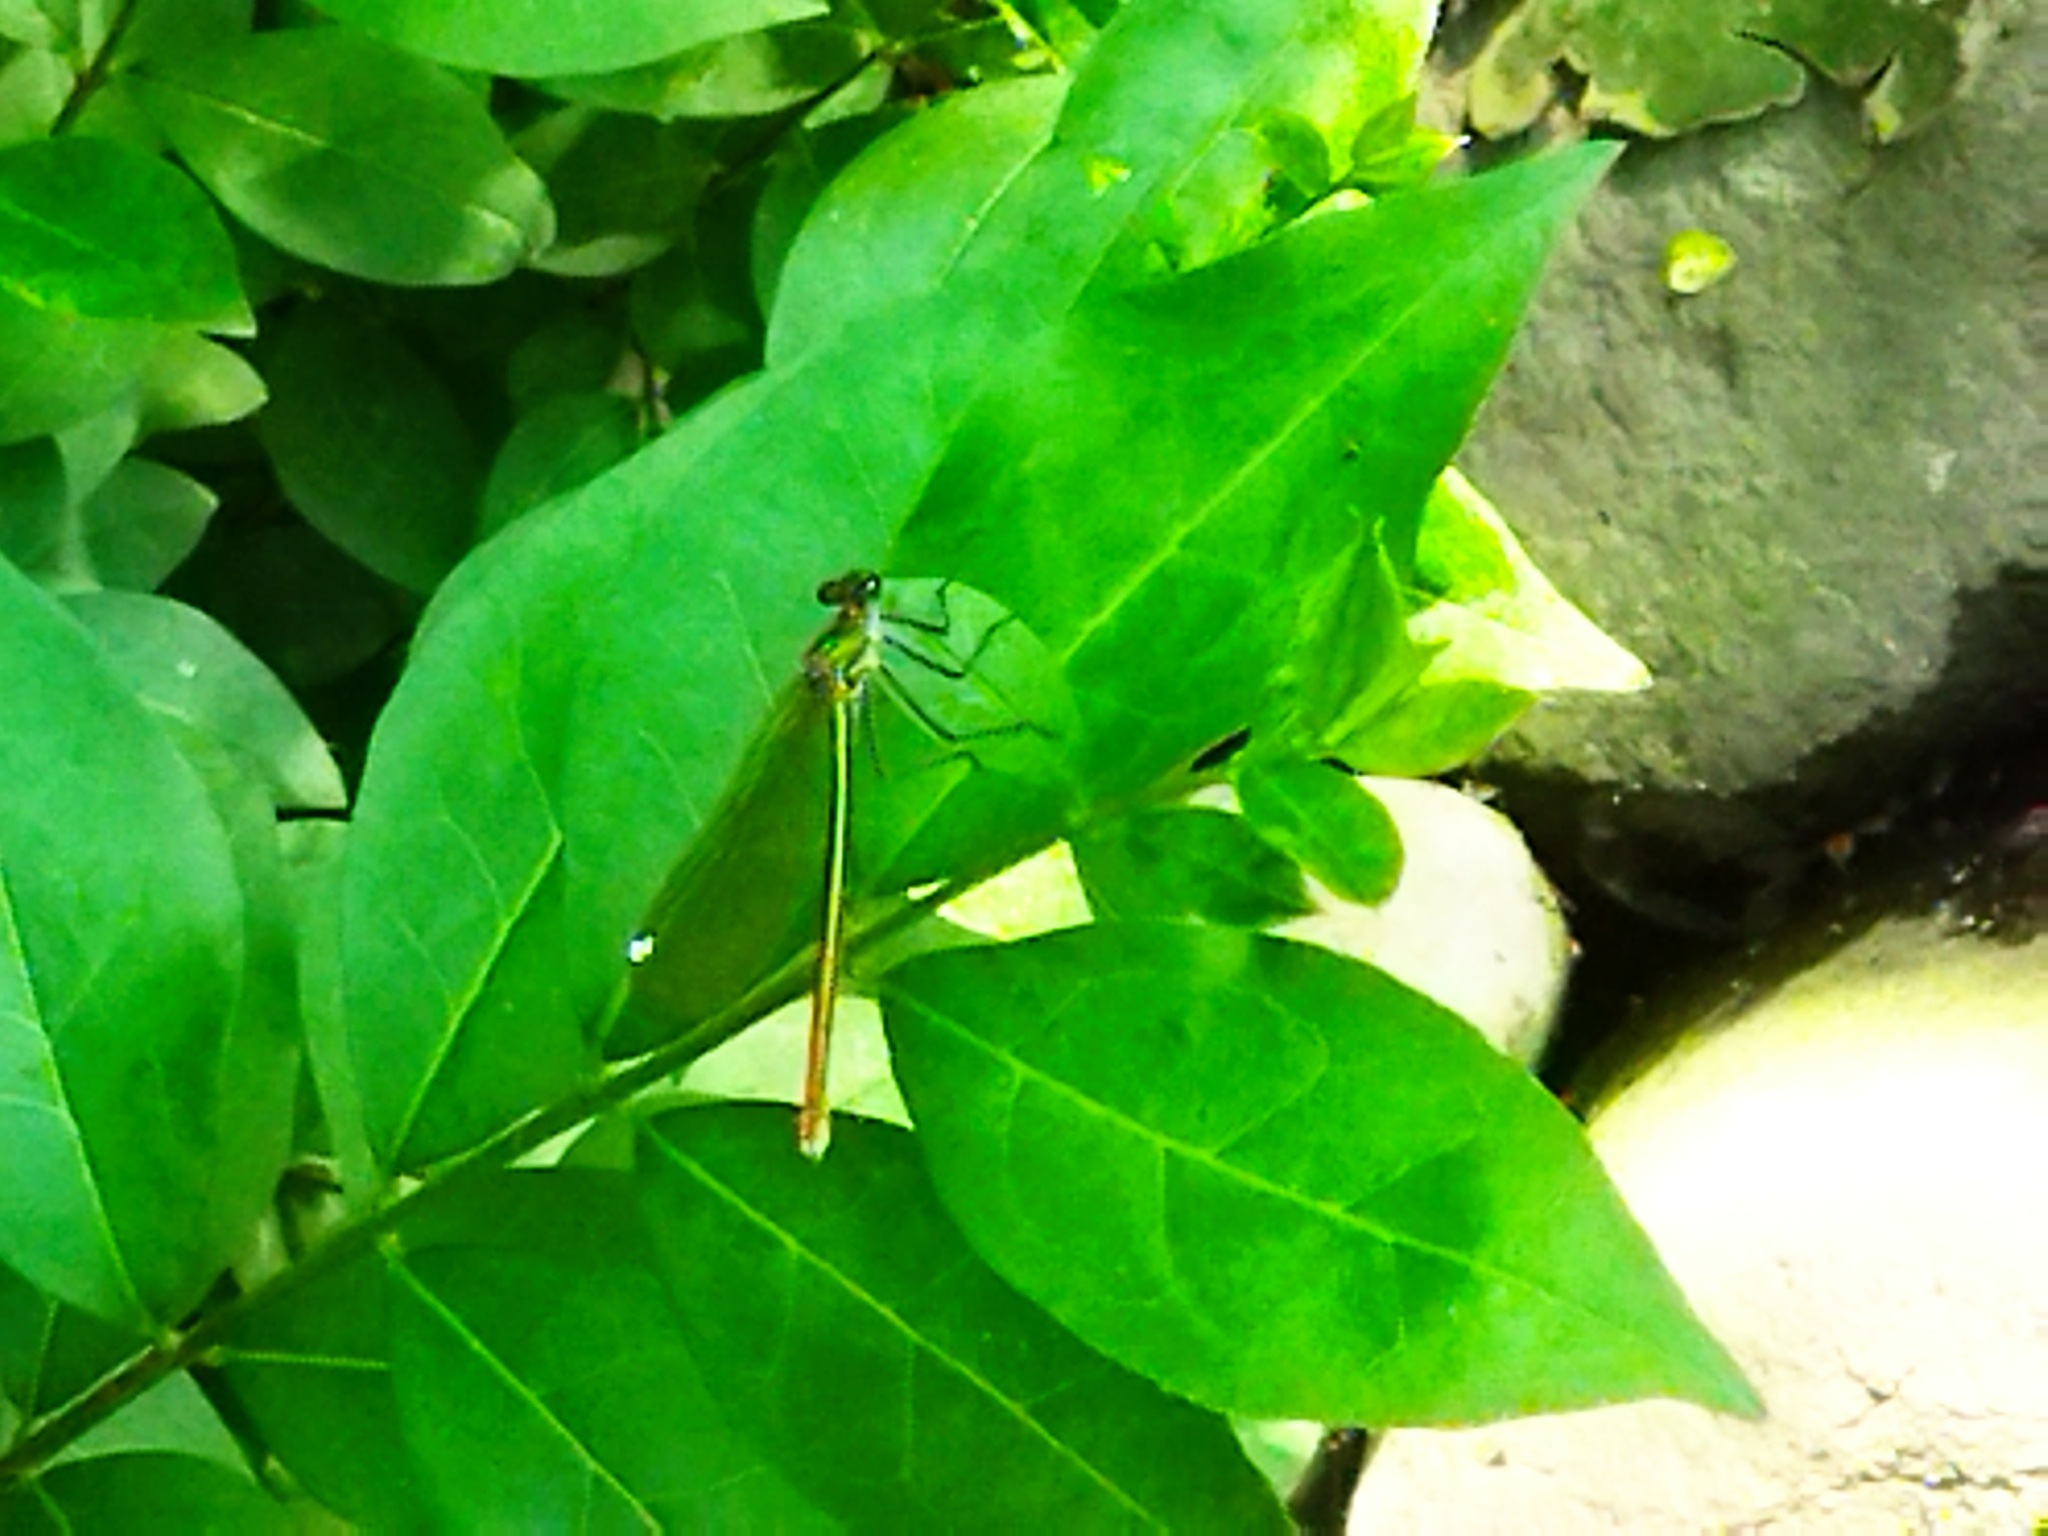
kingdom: Animalia
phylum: Arthropoda
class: Insecta
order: Odonata
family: Calopterygidae
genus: Calopteryx
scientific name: Calopteryx splendens
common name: Banded demoiselle
